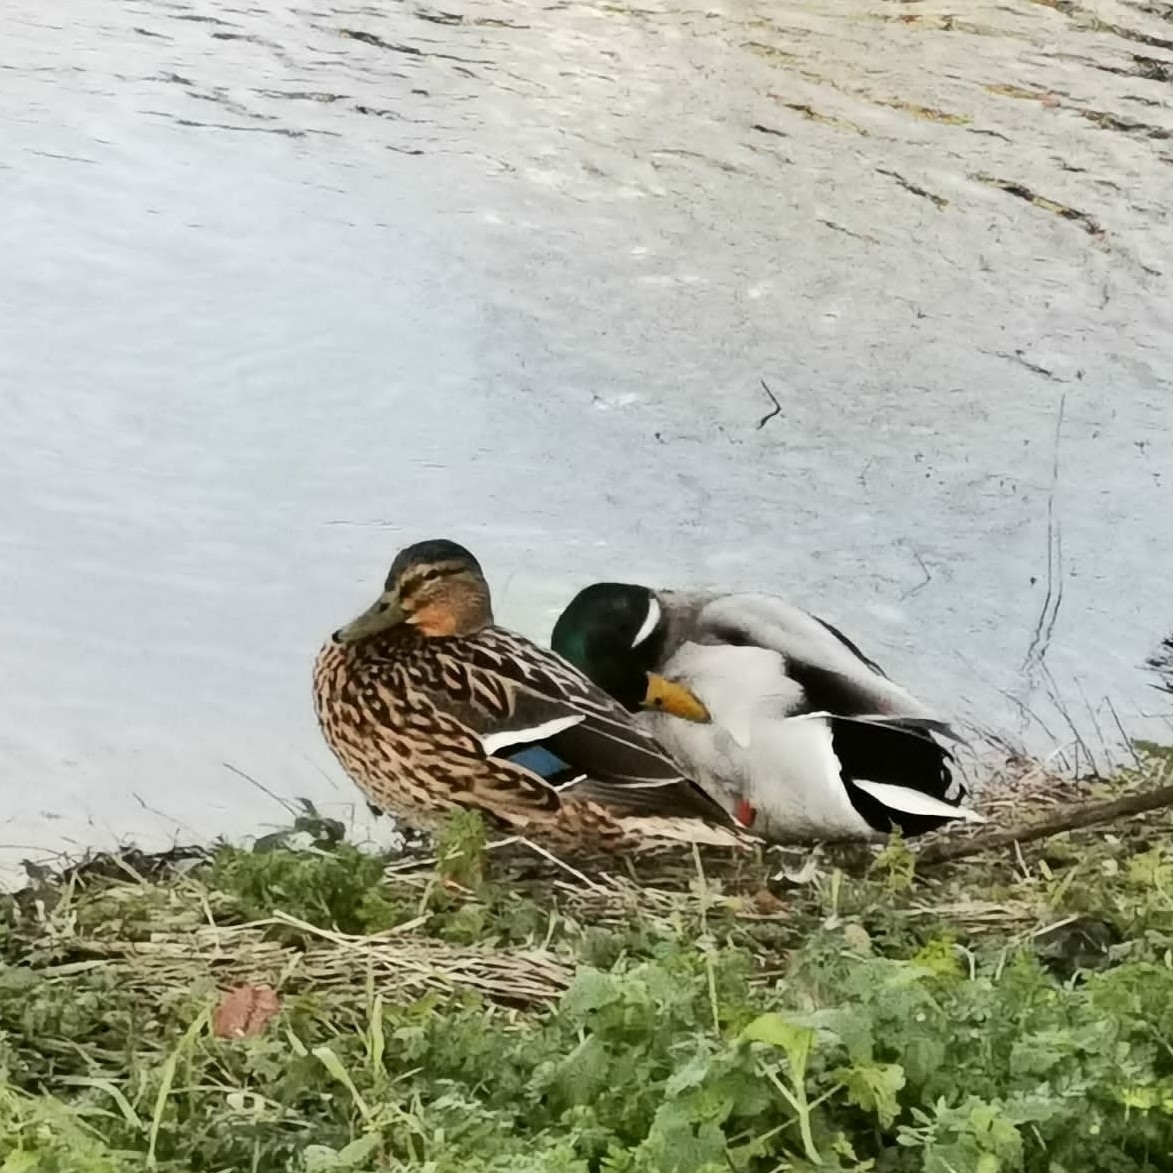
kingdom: Animalia
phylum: Chordata
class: Aves
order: Anseriformes
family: Anatidae
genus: Anas
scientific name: Anas platyrhynchos
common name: Mallard
